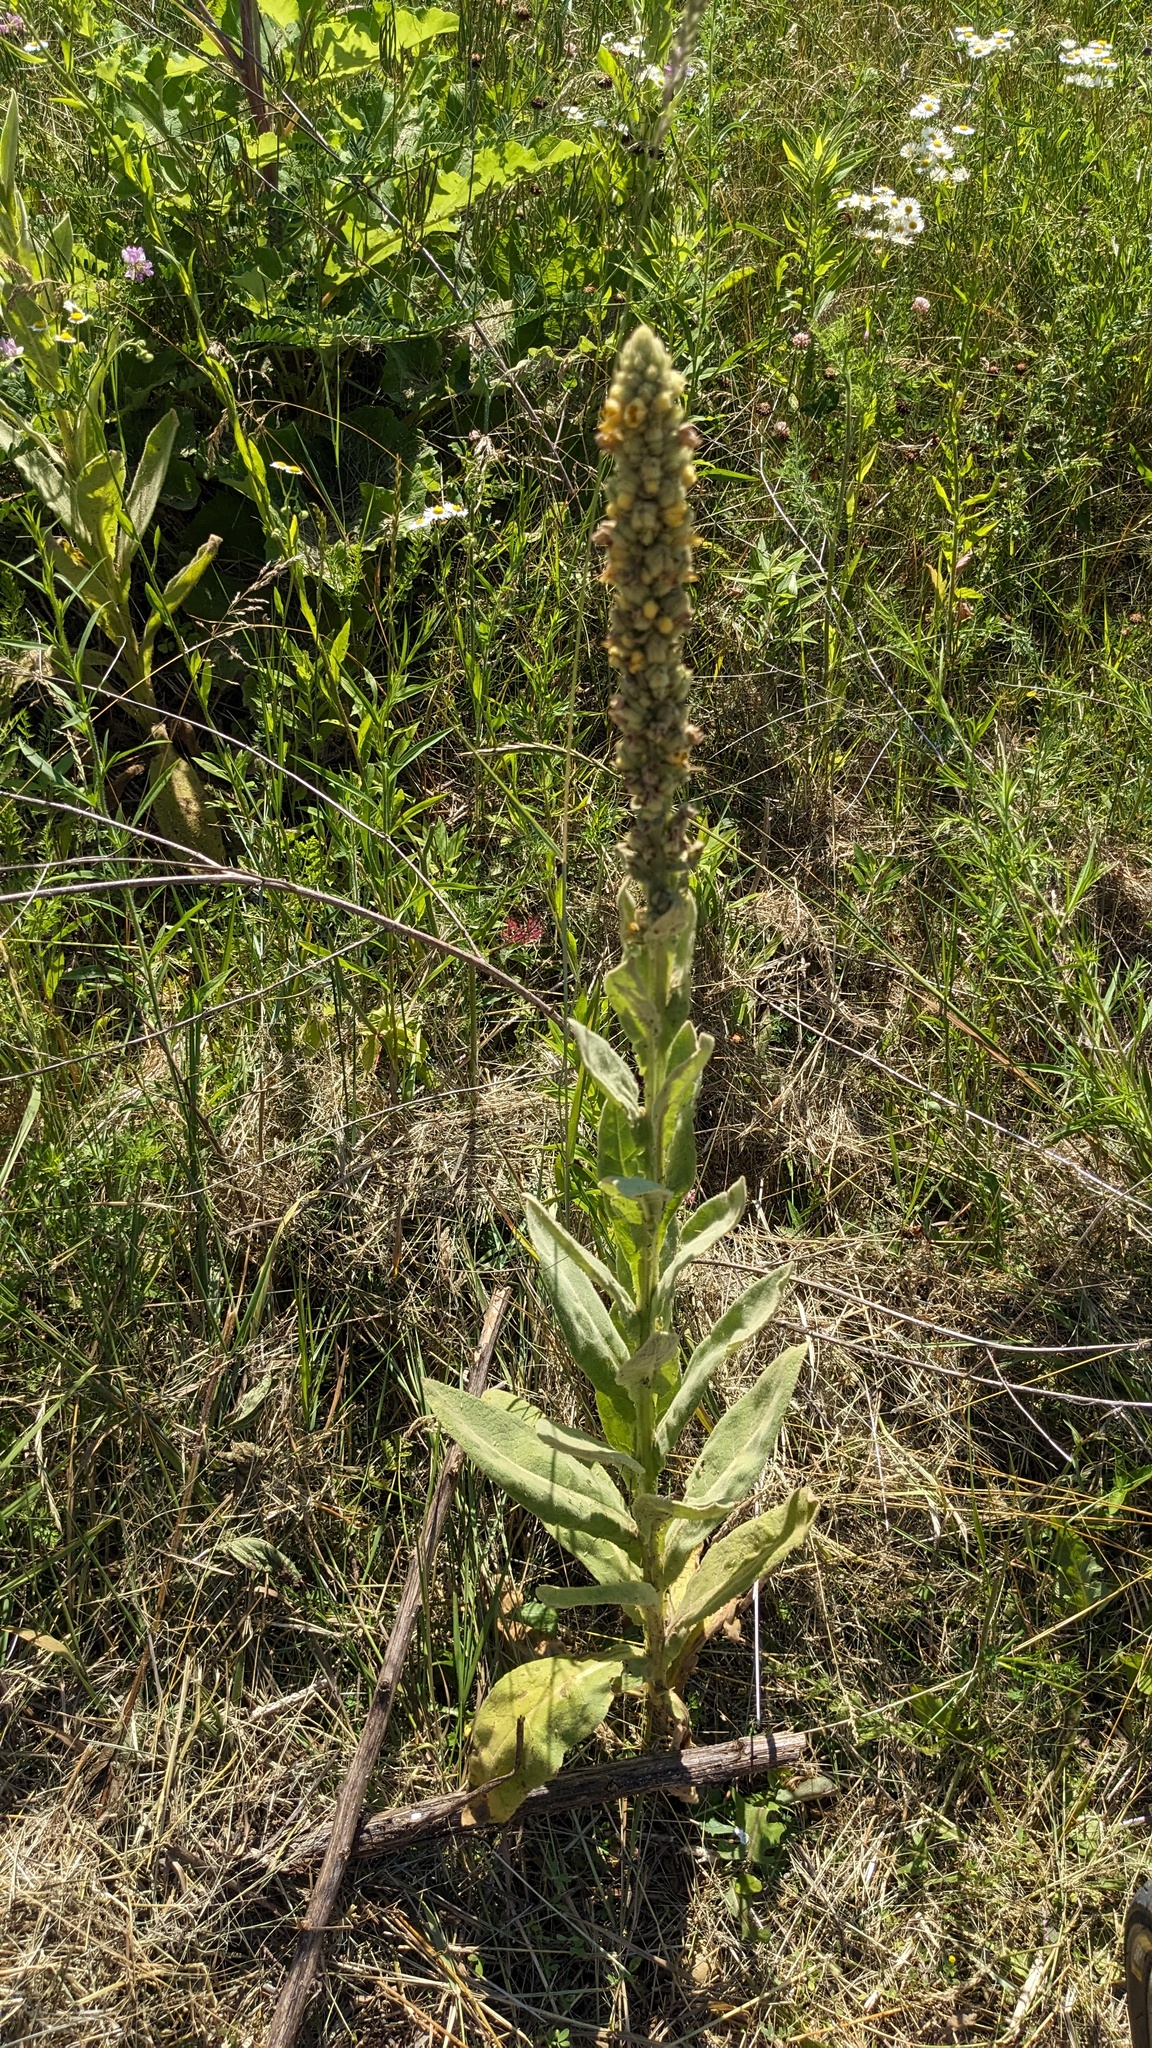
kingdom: Plantae
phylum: Tracheophyta
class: Magnoliopsida
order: Lamiales
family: Scrophulariaceae
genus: Verbascum
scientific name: Verbascum thapsus
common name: Common mullein
